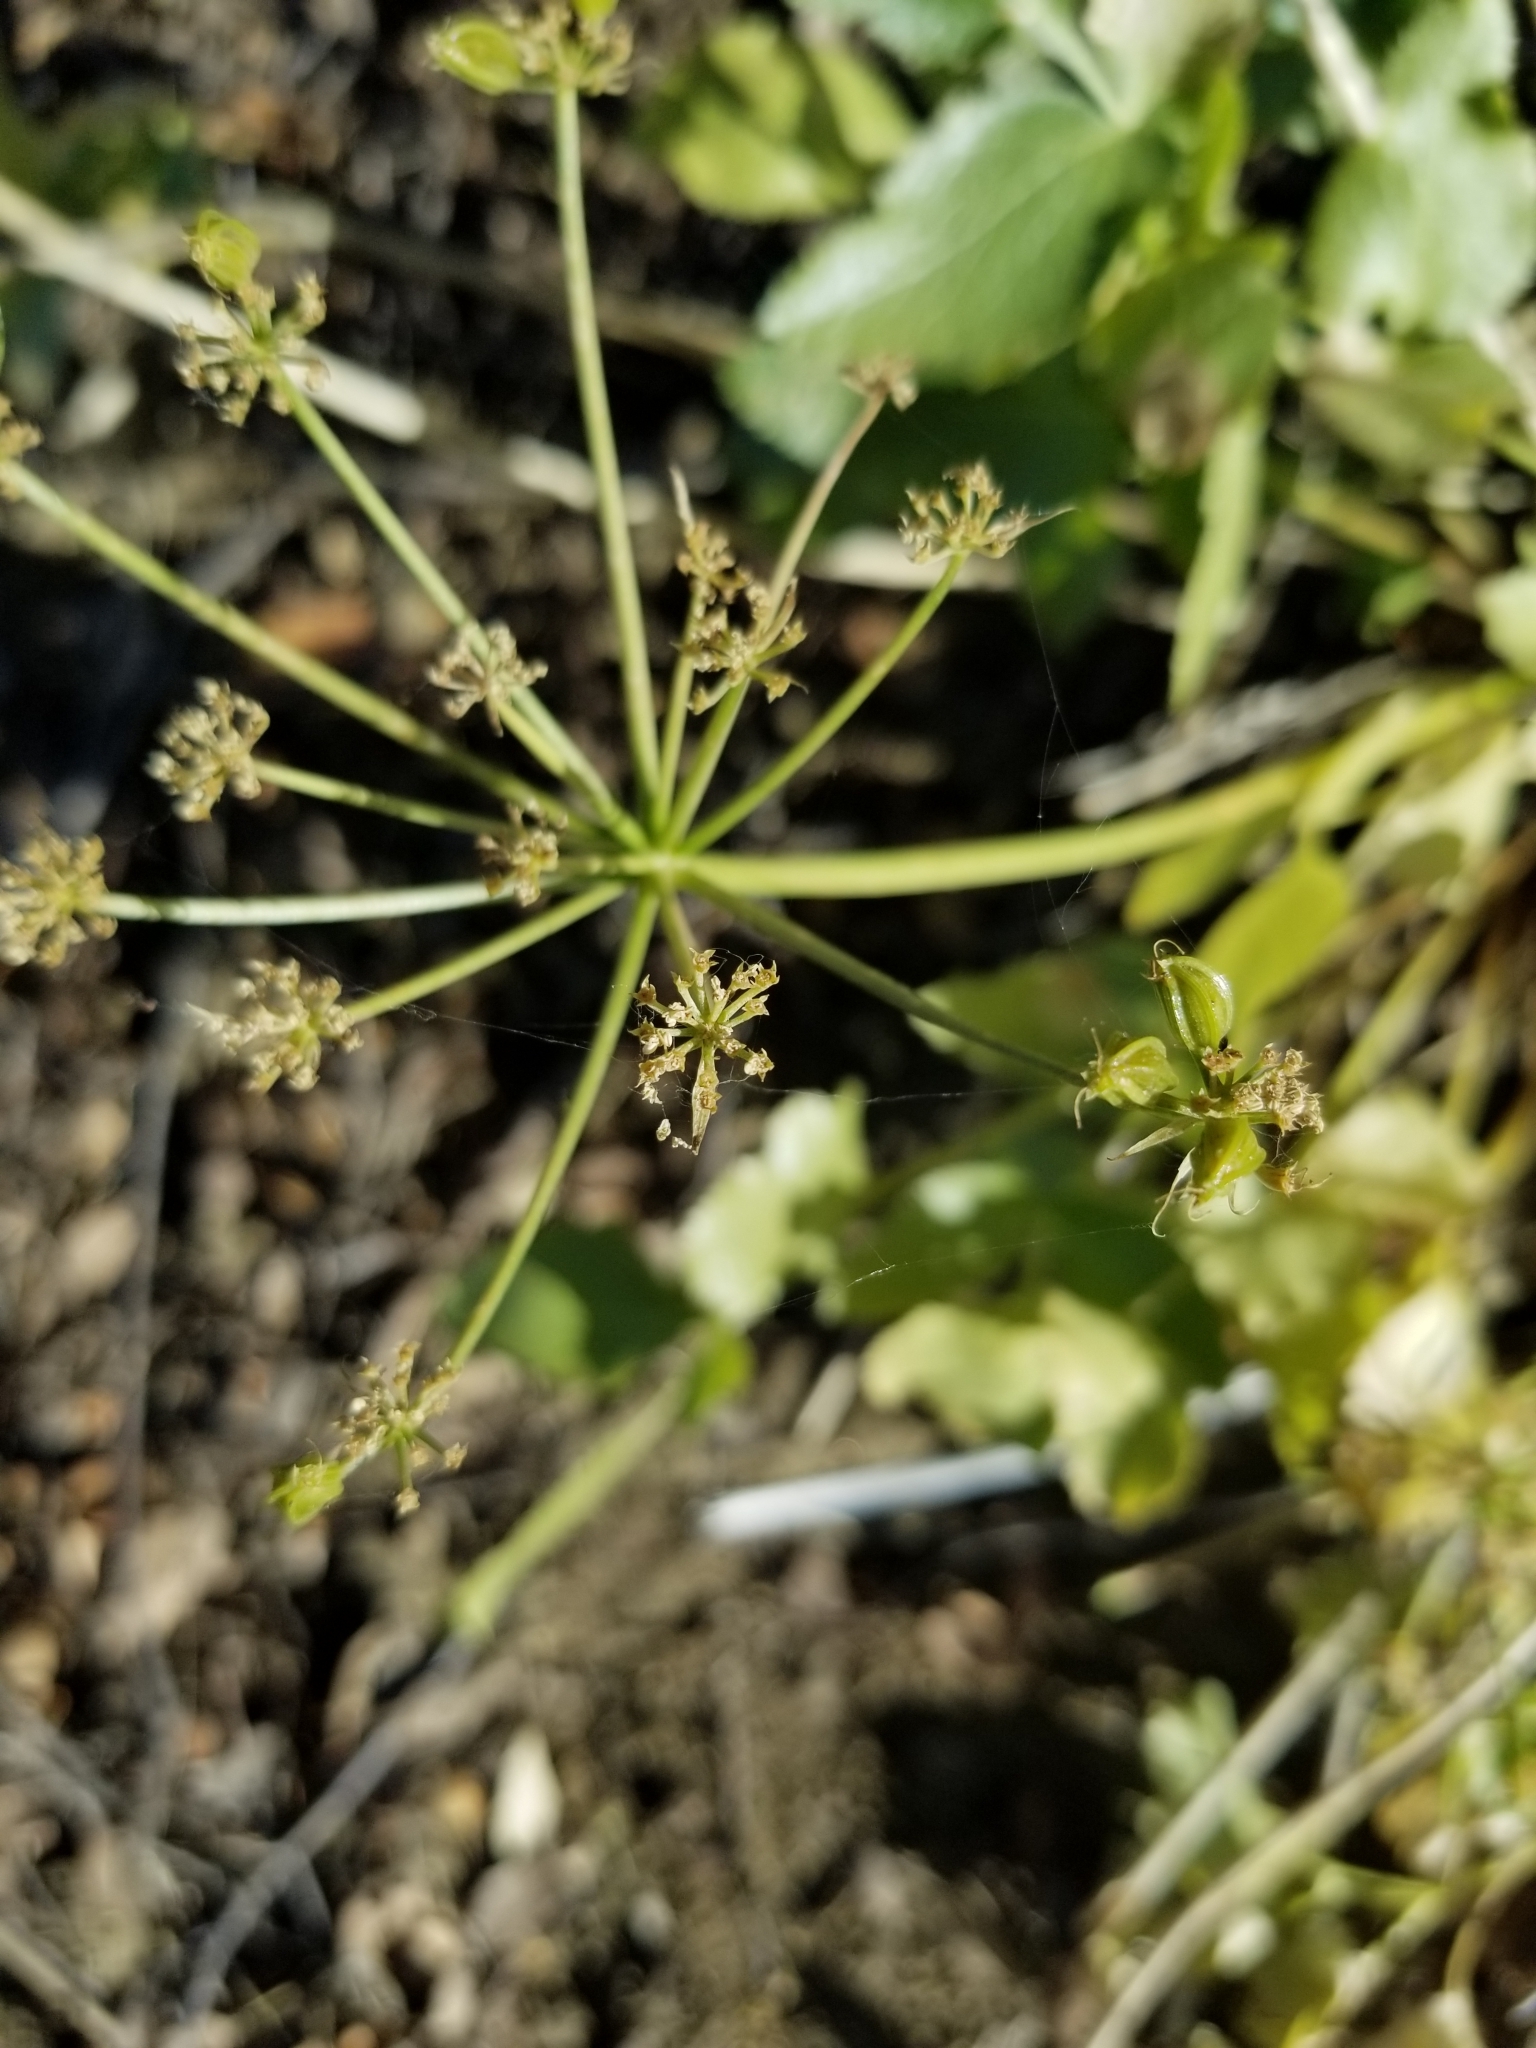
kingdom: Plantae
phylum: Tracheophyta
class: Magnoliopsida
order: Apiales
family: Apiaceae
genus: Tauschia
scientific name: Tauschia arguta
